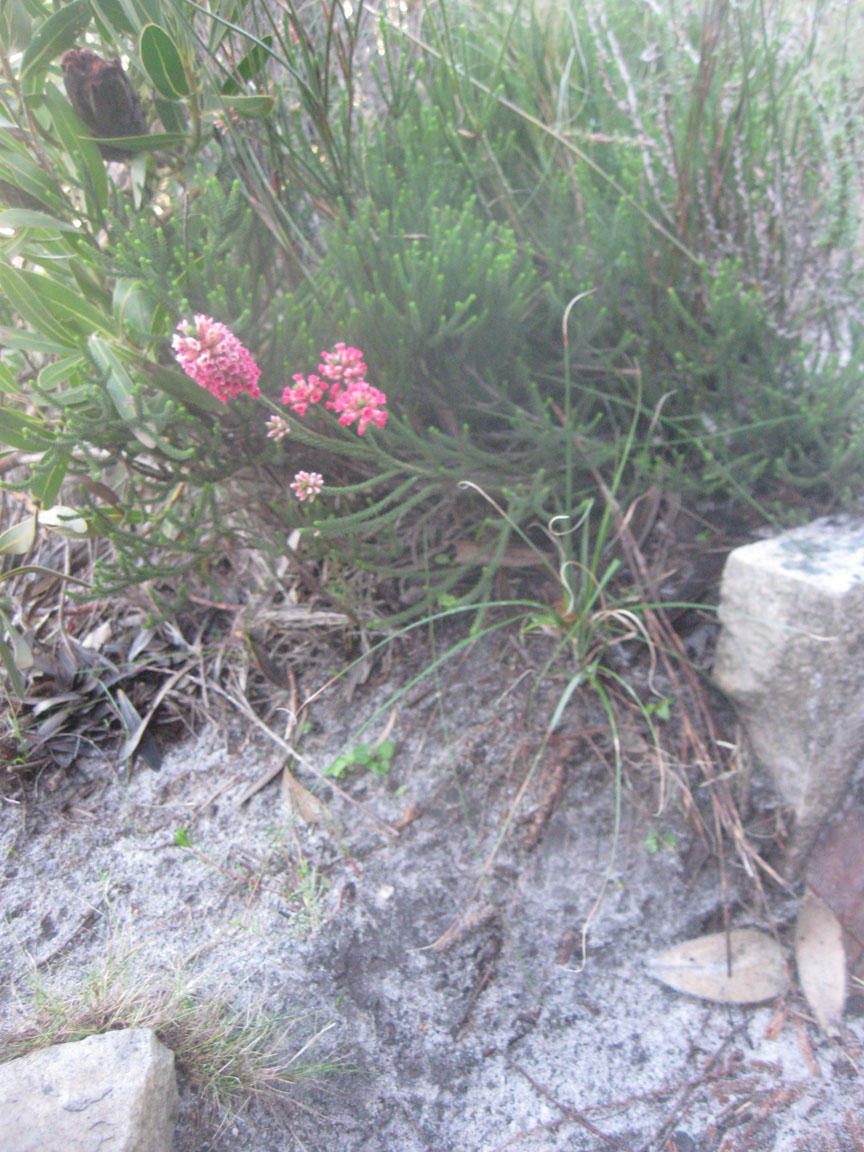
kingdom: Plantae
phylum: Tracheophyta
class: Magnoliopsida
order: Bruniales
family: Bruniaceae
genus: Audouinia
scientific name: Audouinia capitata
